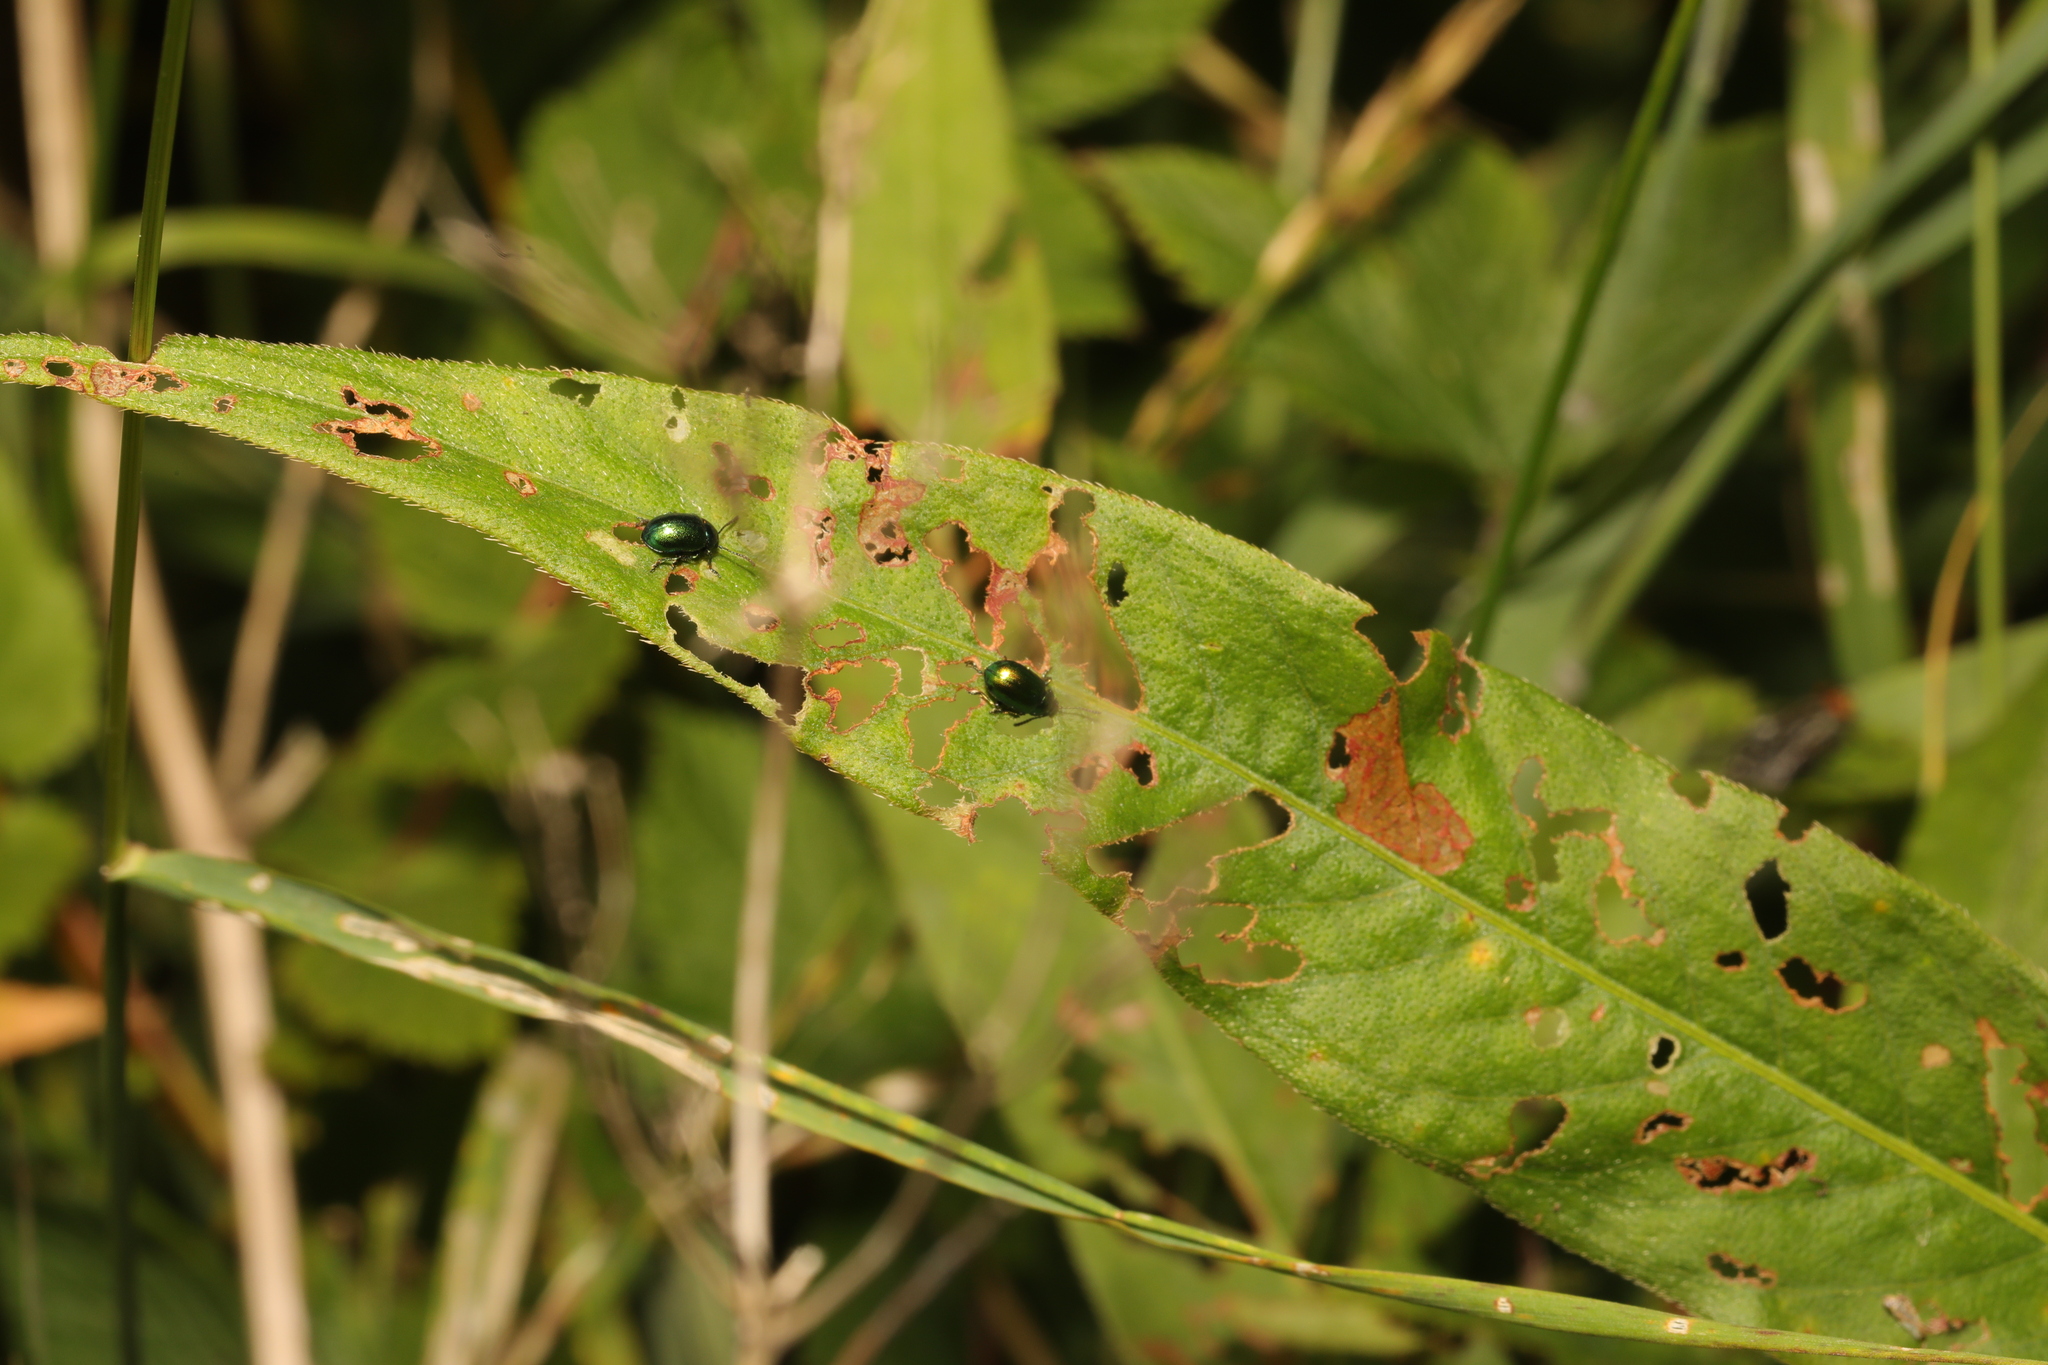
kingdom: Animalia
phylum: Arthropoda
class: Insecta
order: Coleoptera
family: Chrysomelidae
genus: Gastrophysa
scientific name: Gastrophysa viridula
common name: Green dock beetle
